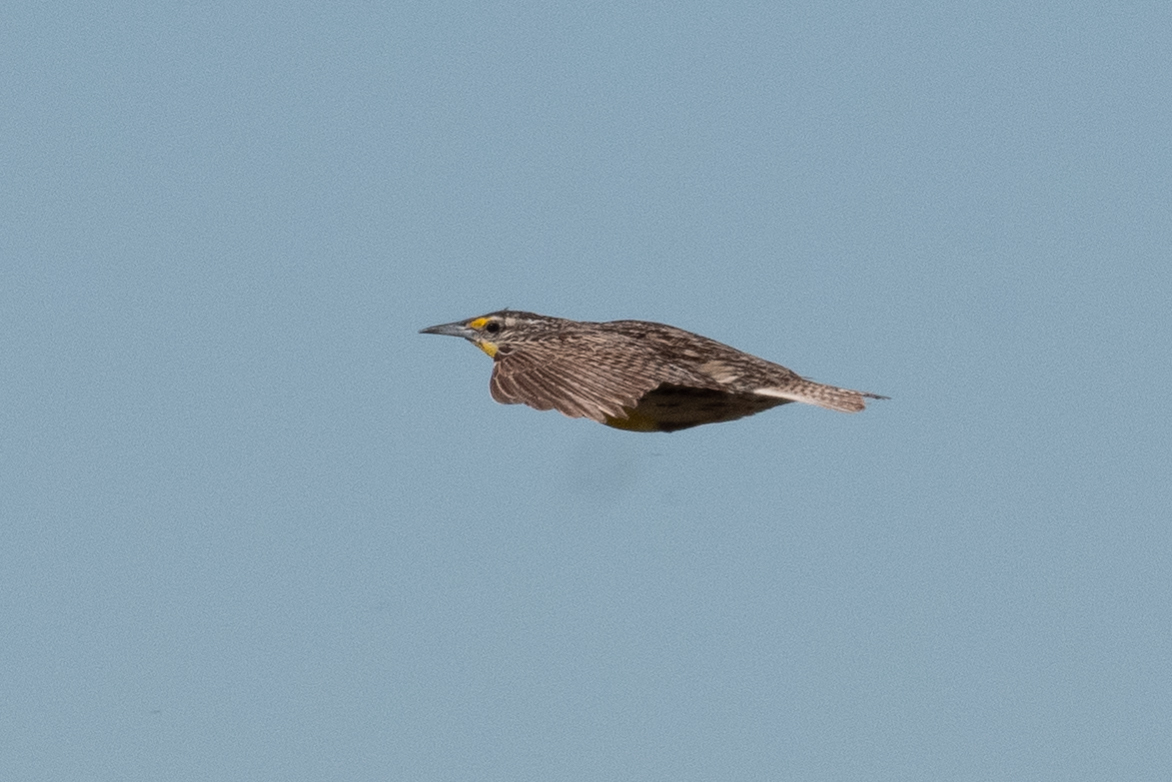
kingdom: Animalia
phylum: Chordata
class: Aves
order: Passeriformes
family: Icteridae
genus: Sturnella
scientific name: Sturnella neglecta
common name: Western meadowlark
